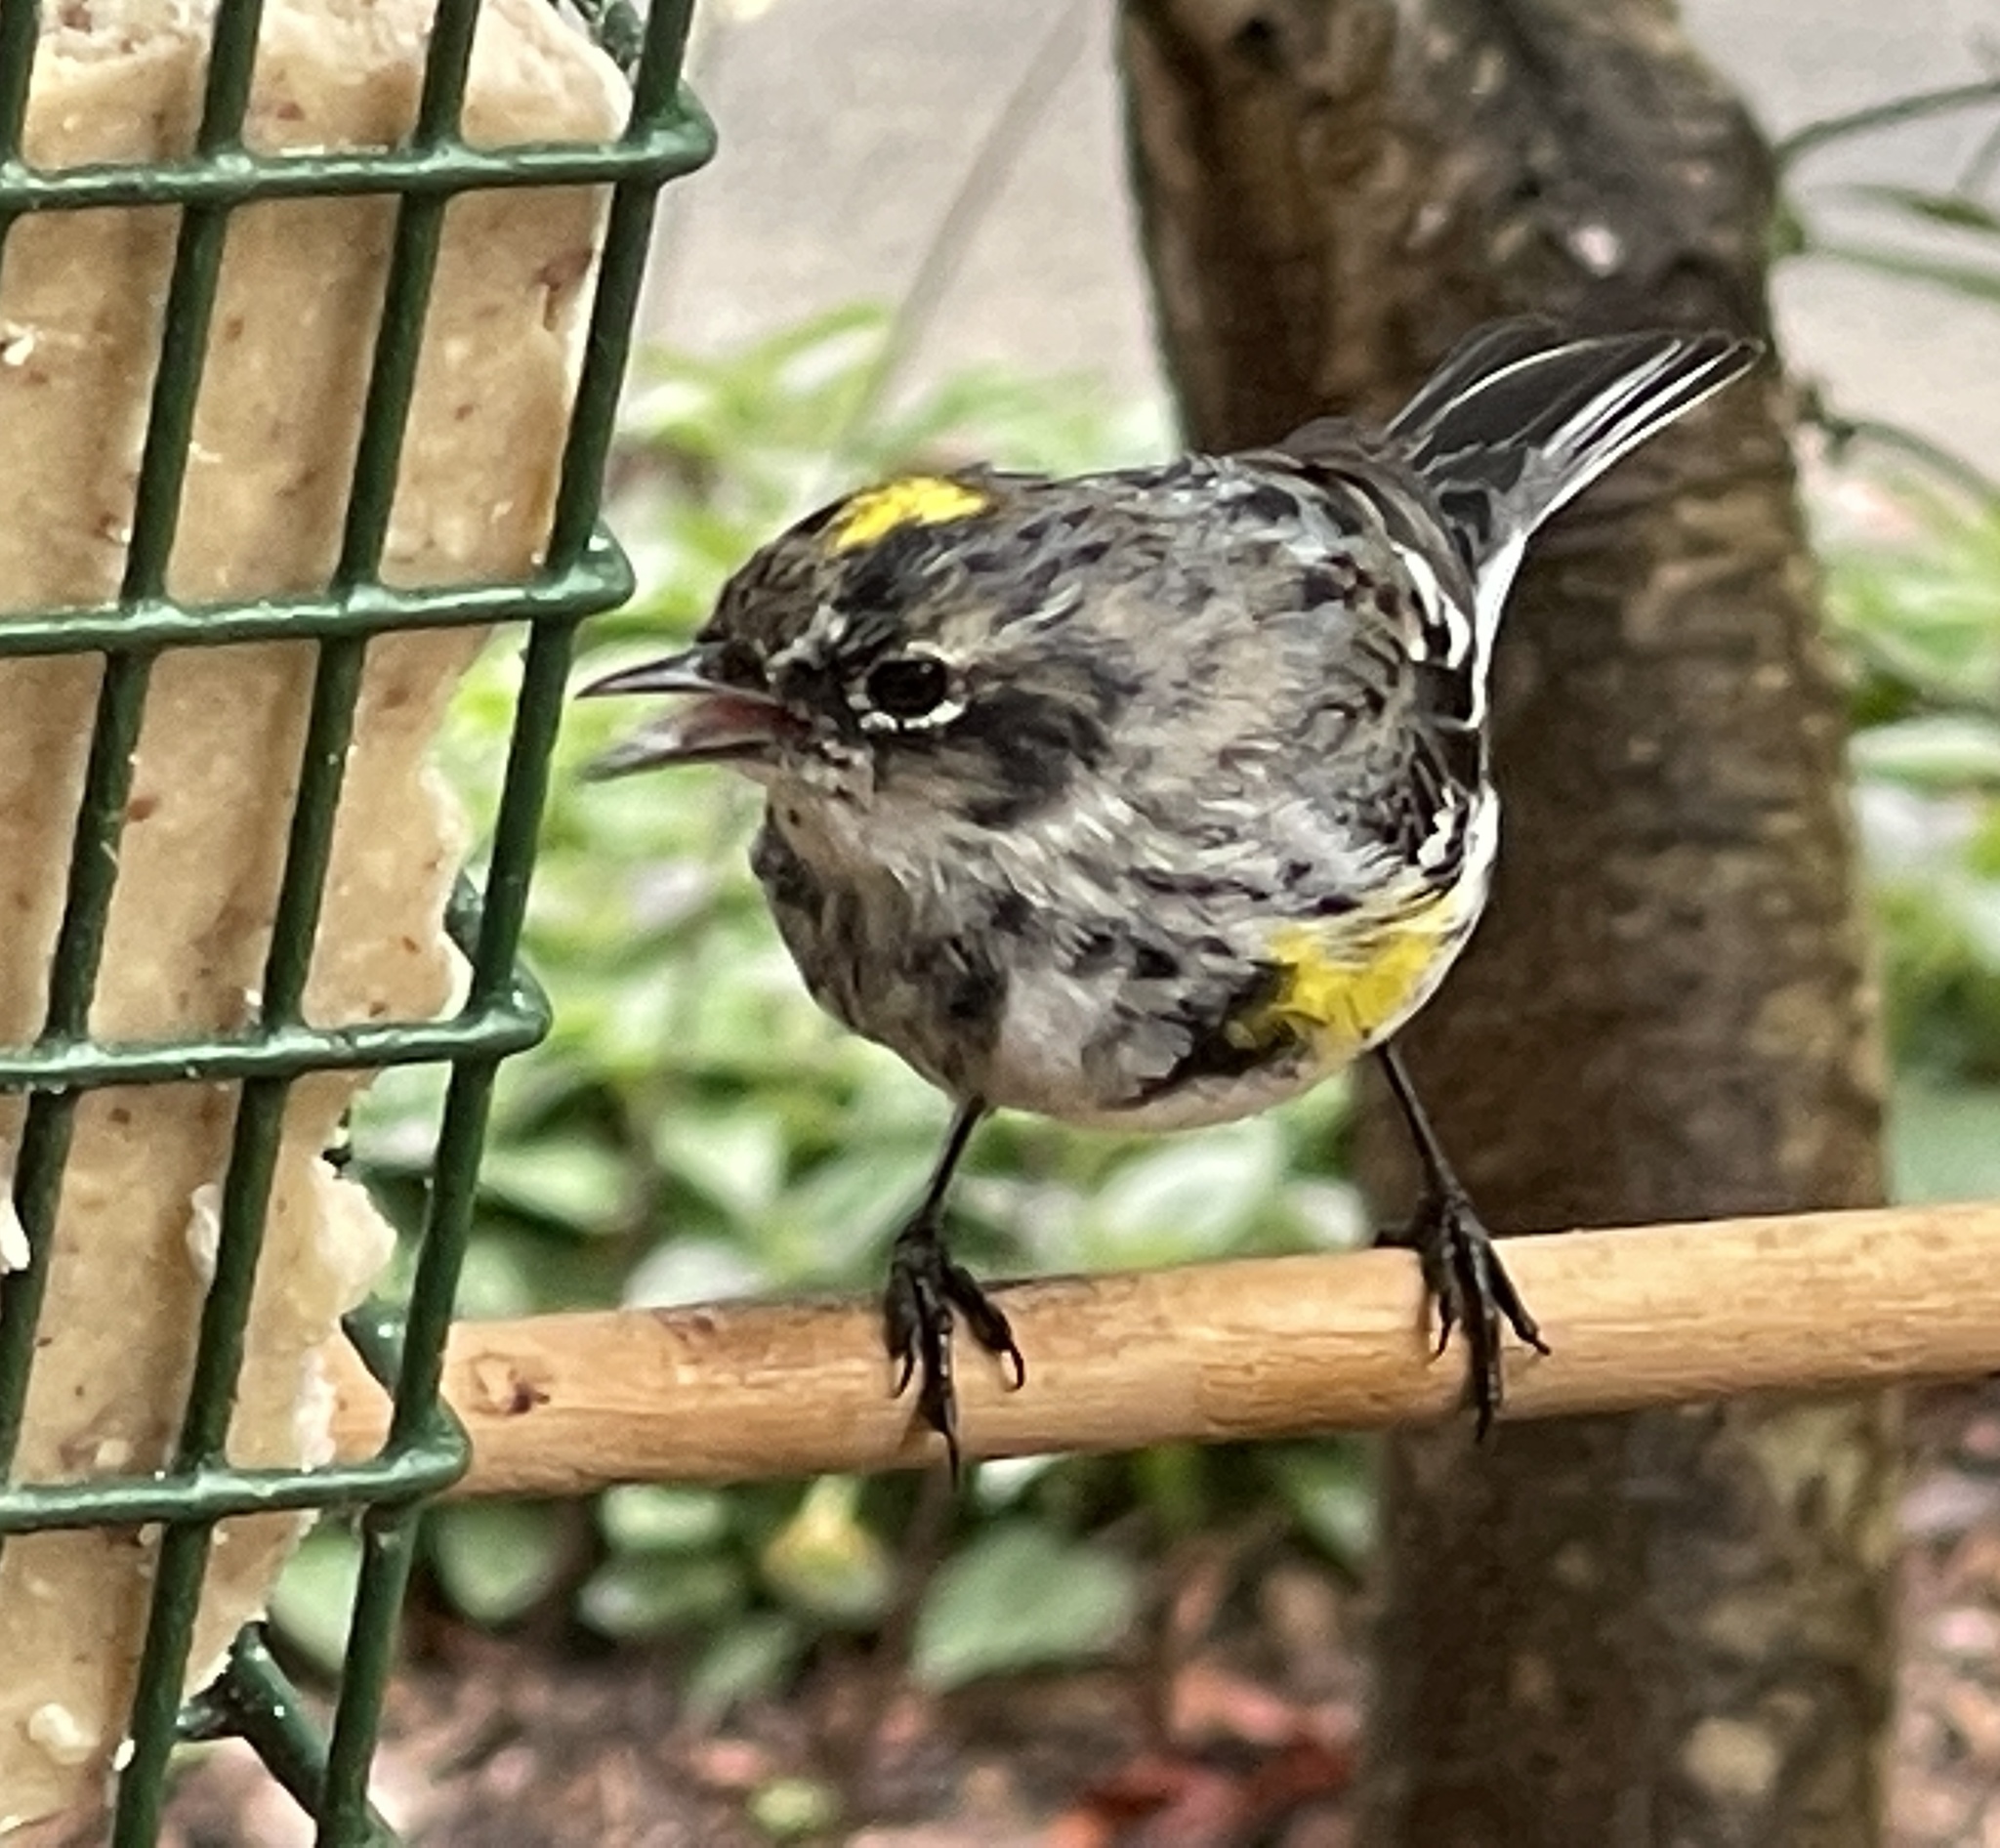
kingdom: Animalia
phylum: Chordata
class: Aves
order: Passeriformes
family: Parulidae
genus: Setophaga
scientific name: Setophaga coronata
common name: Myrtle warbler
